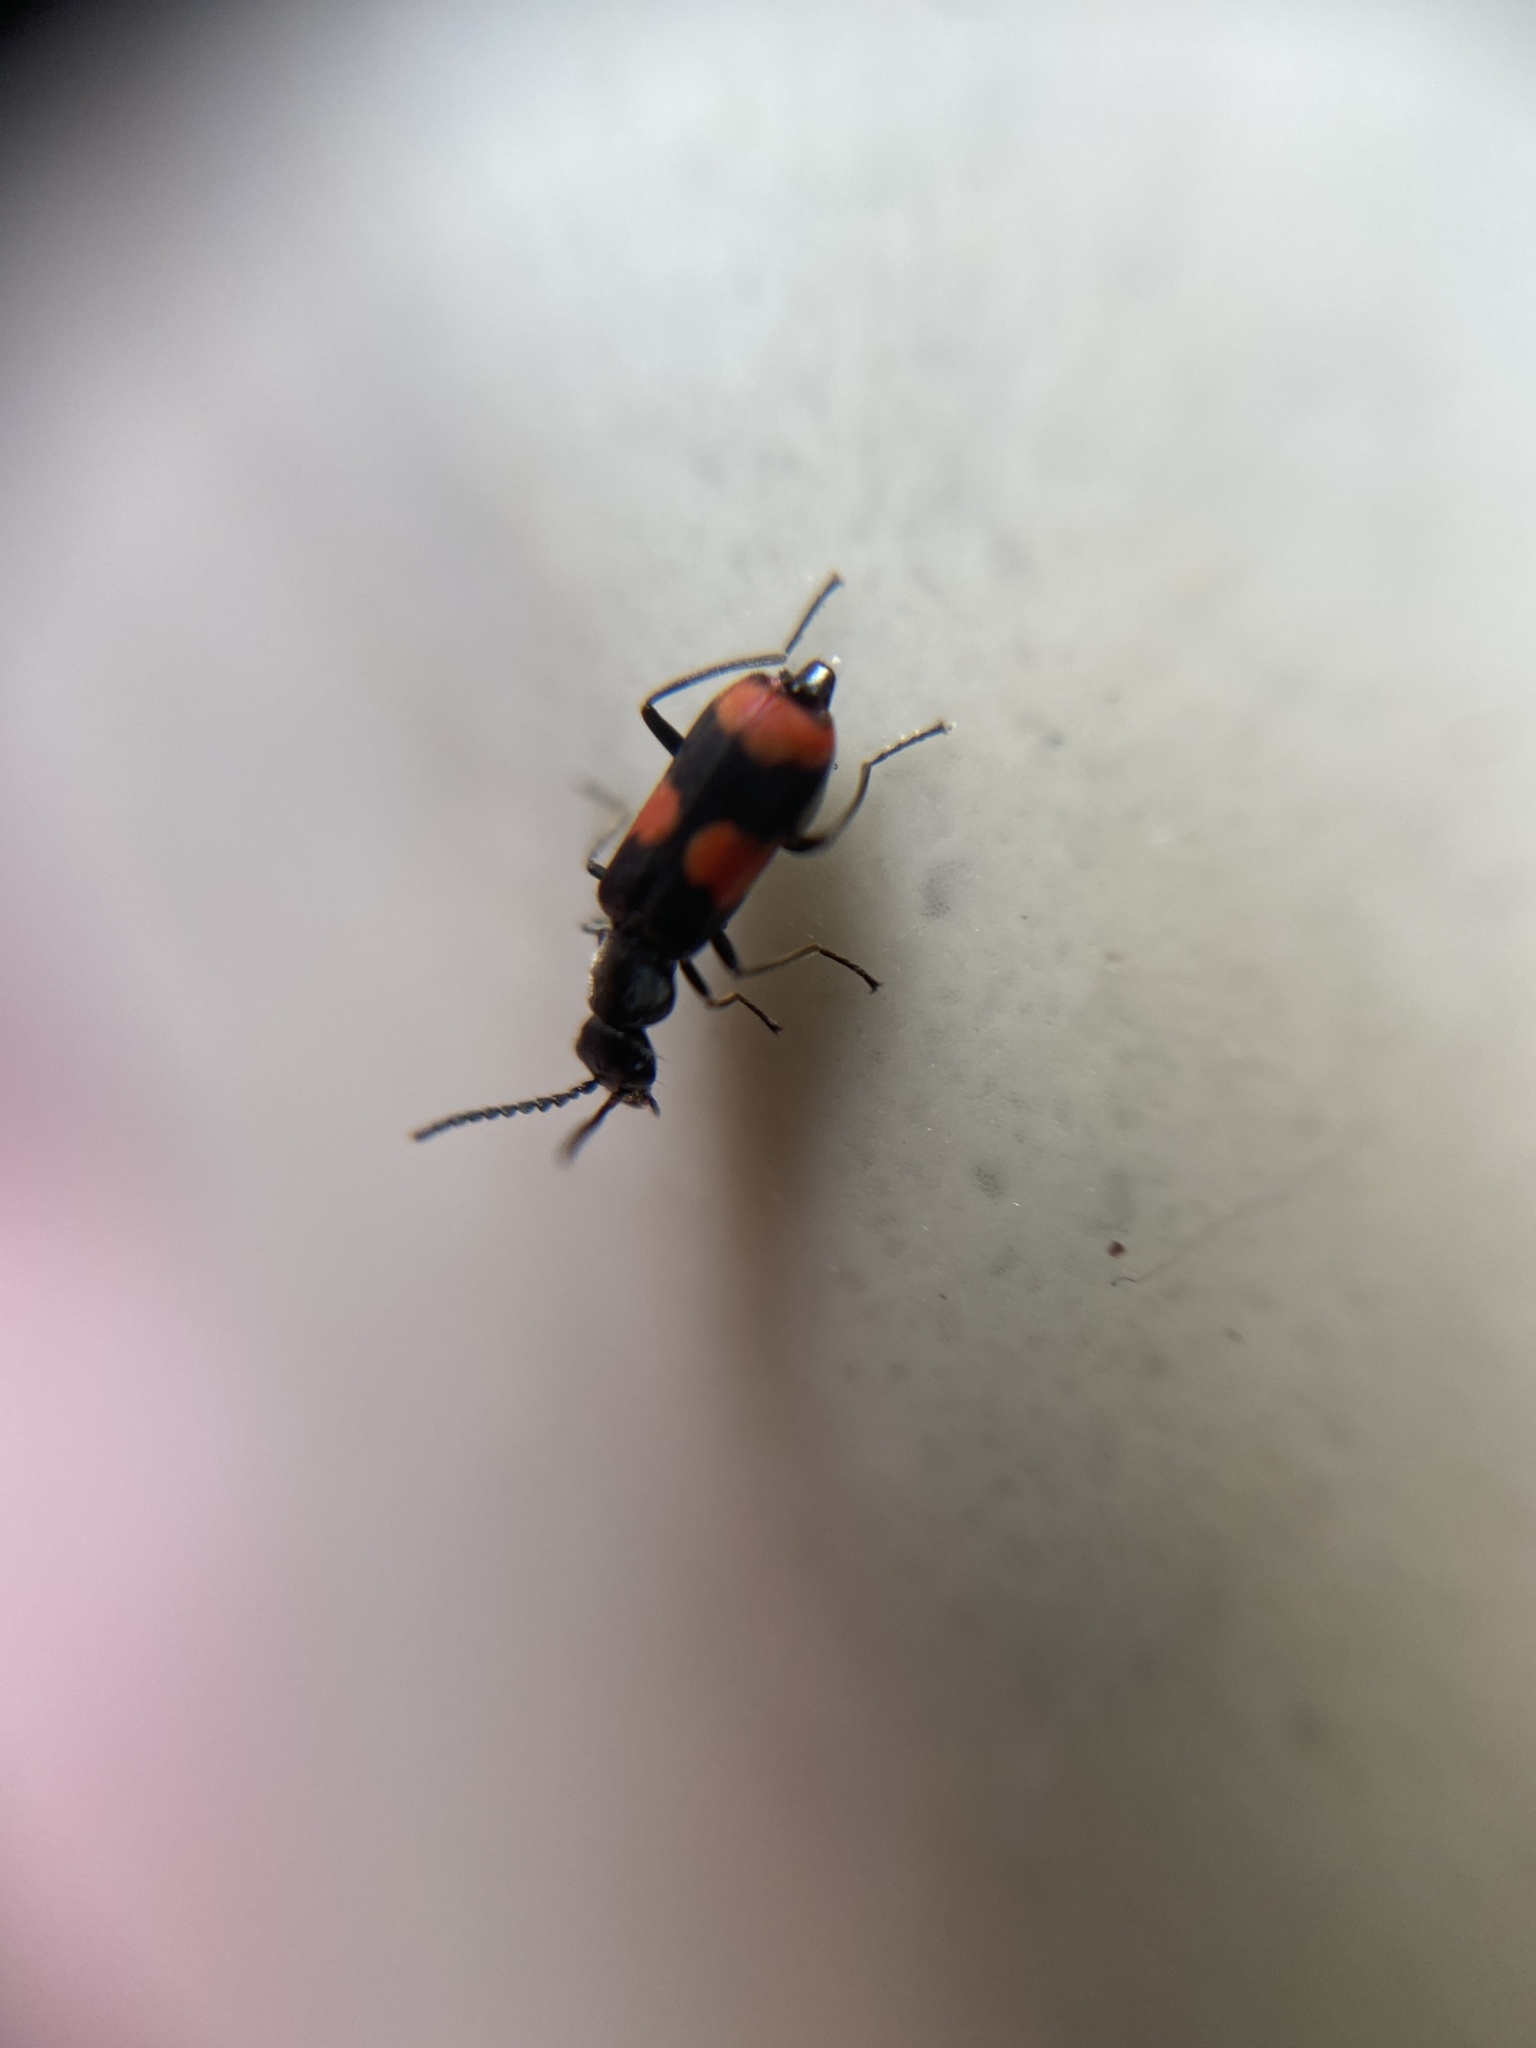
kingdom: Animalia
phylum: Arthropoda
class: Insecta
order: Coleoptera
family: Melyridae
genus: Anthocomus
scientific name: Anthocomus fasciatus
